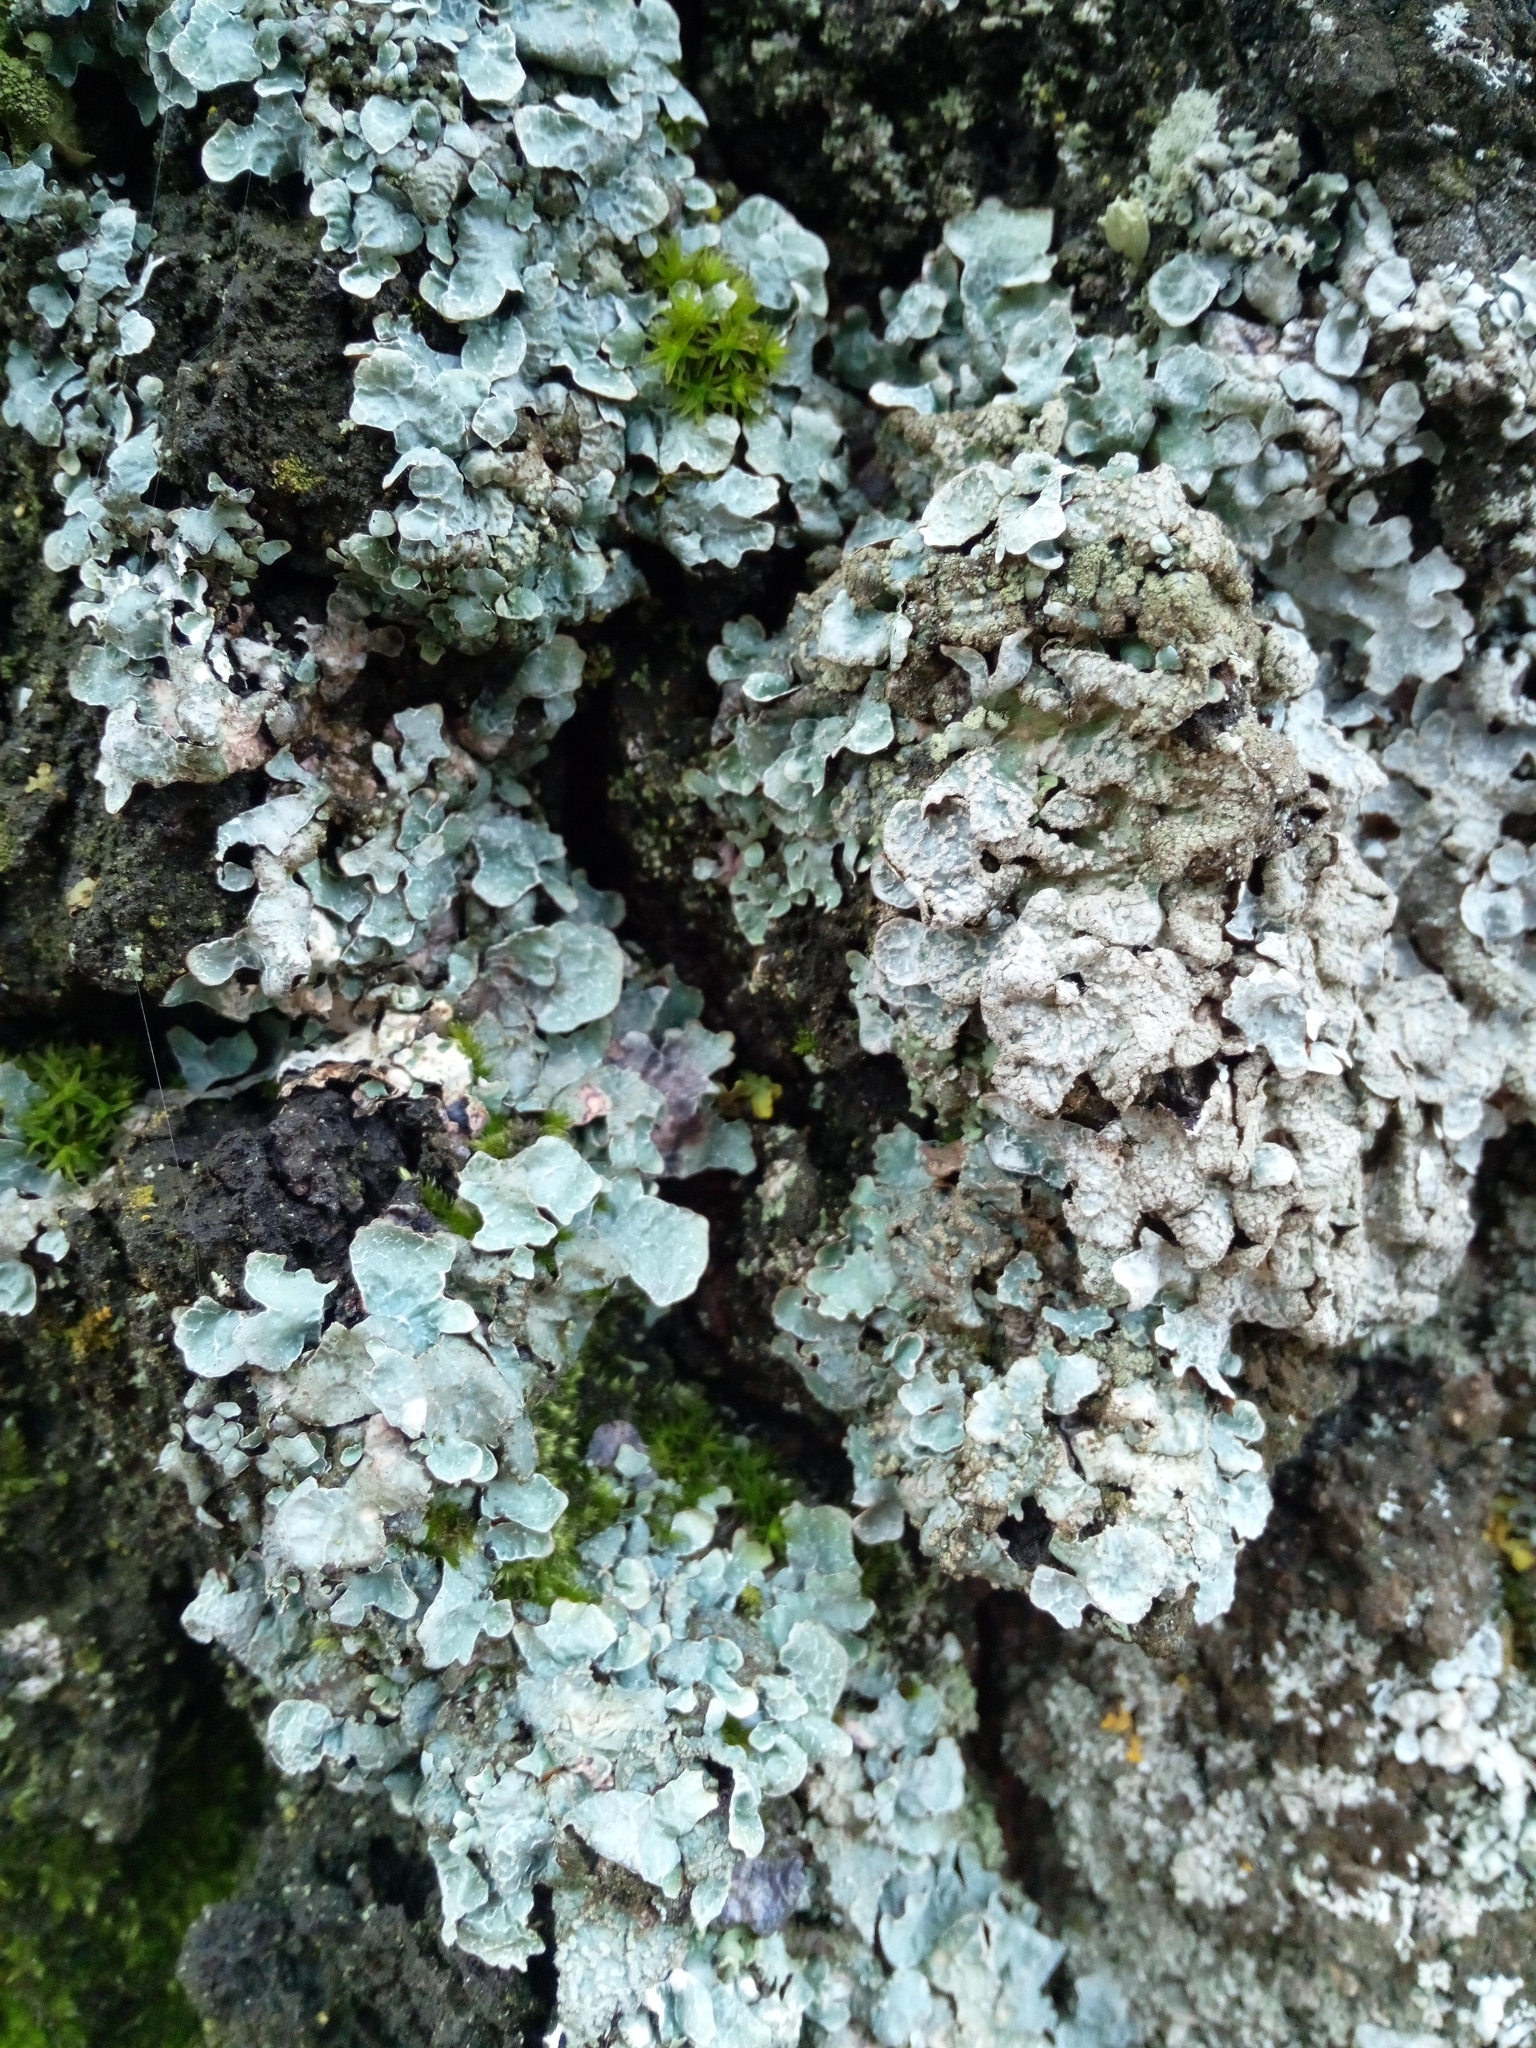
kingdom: Fungi
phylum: Ascomycota
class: Lecanoromycetes
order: Lecanorales
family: Parmeliaceae
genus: Parmelia
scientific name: Parmelia sulcata
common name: Netted shield lichen
